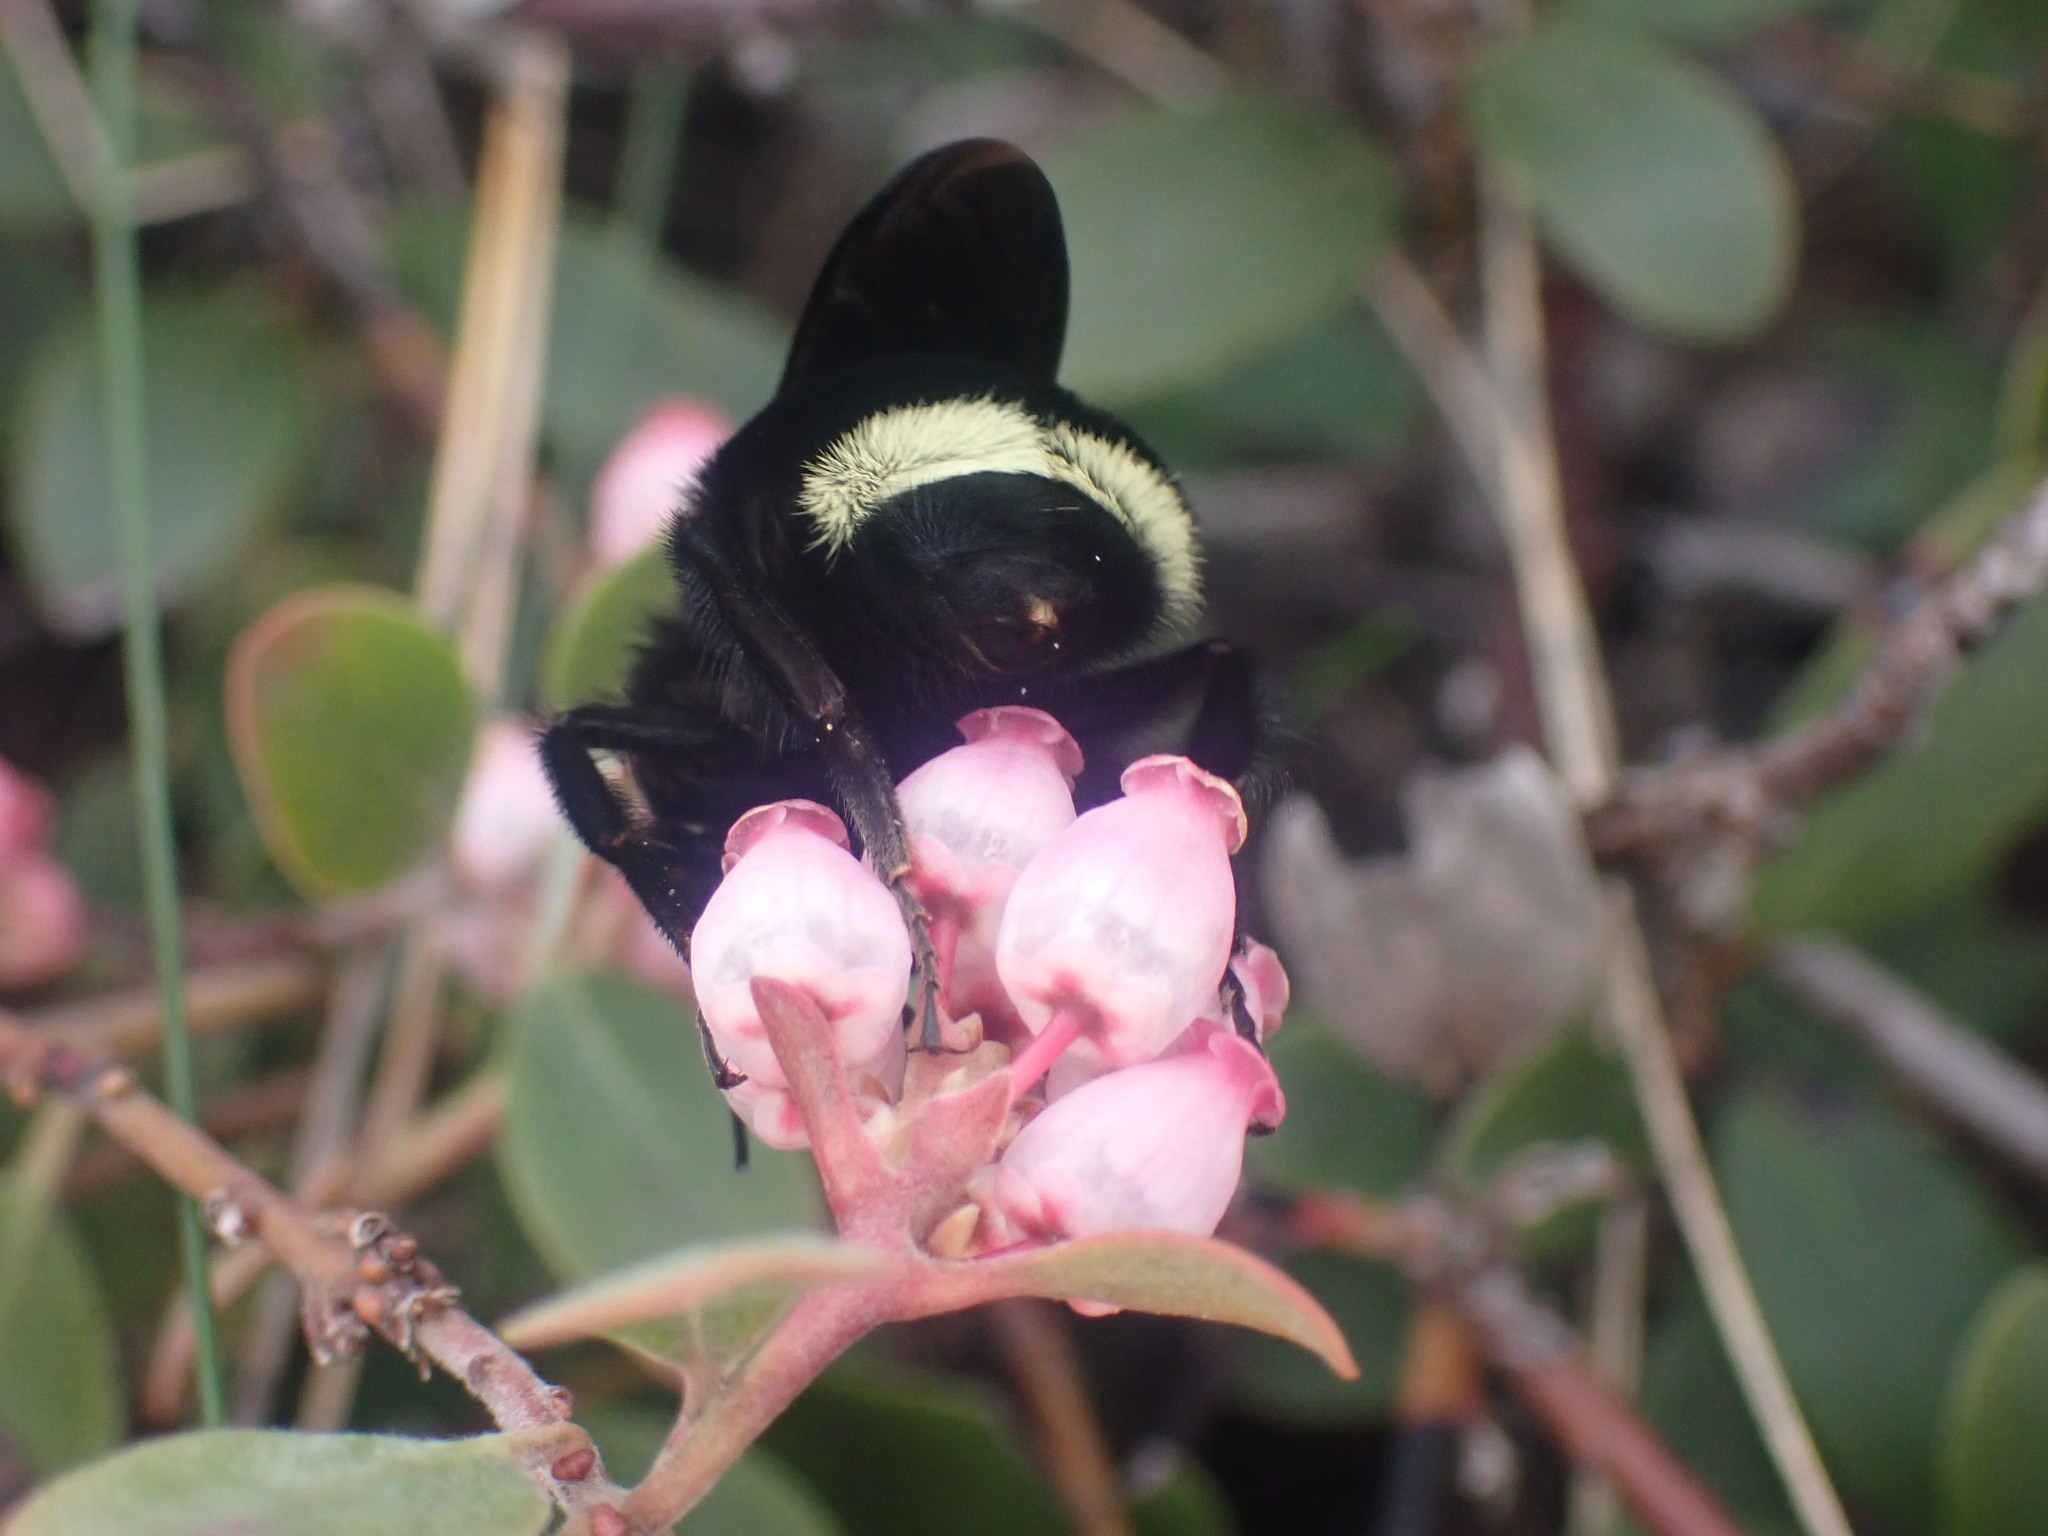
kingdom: Animalia
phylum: Arthropoda
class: Insecta
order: Hymenoptera
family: Apidae
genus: Bombus
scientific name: Bombus vosnesenskii
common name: Vosnesensky bumble bee
